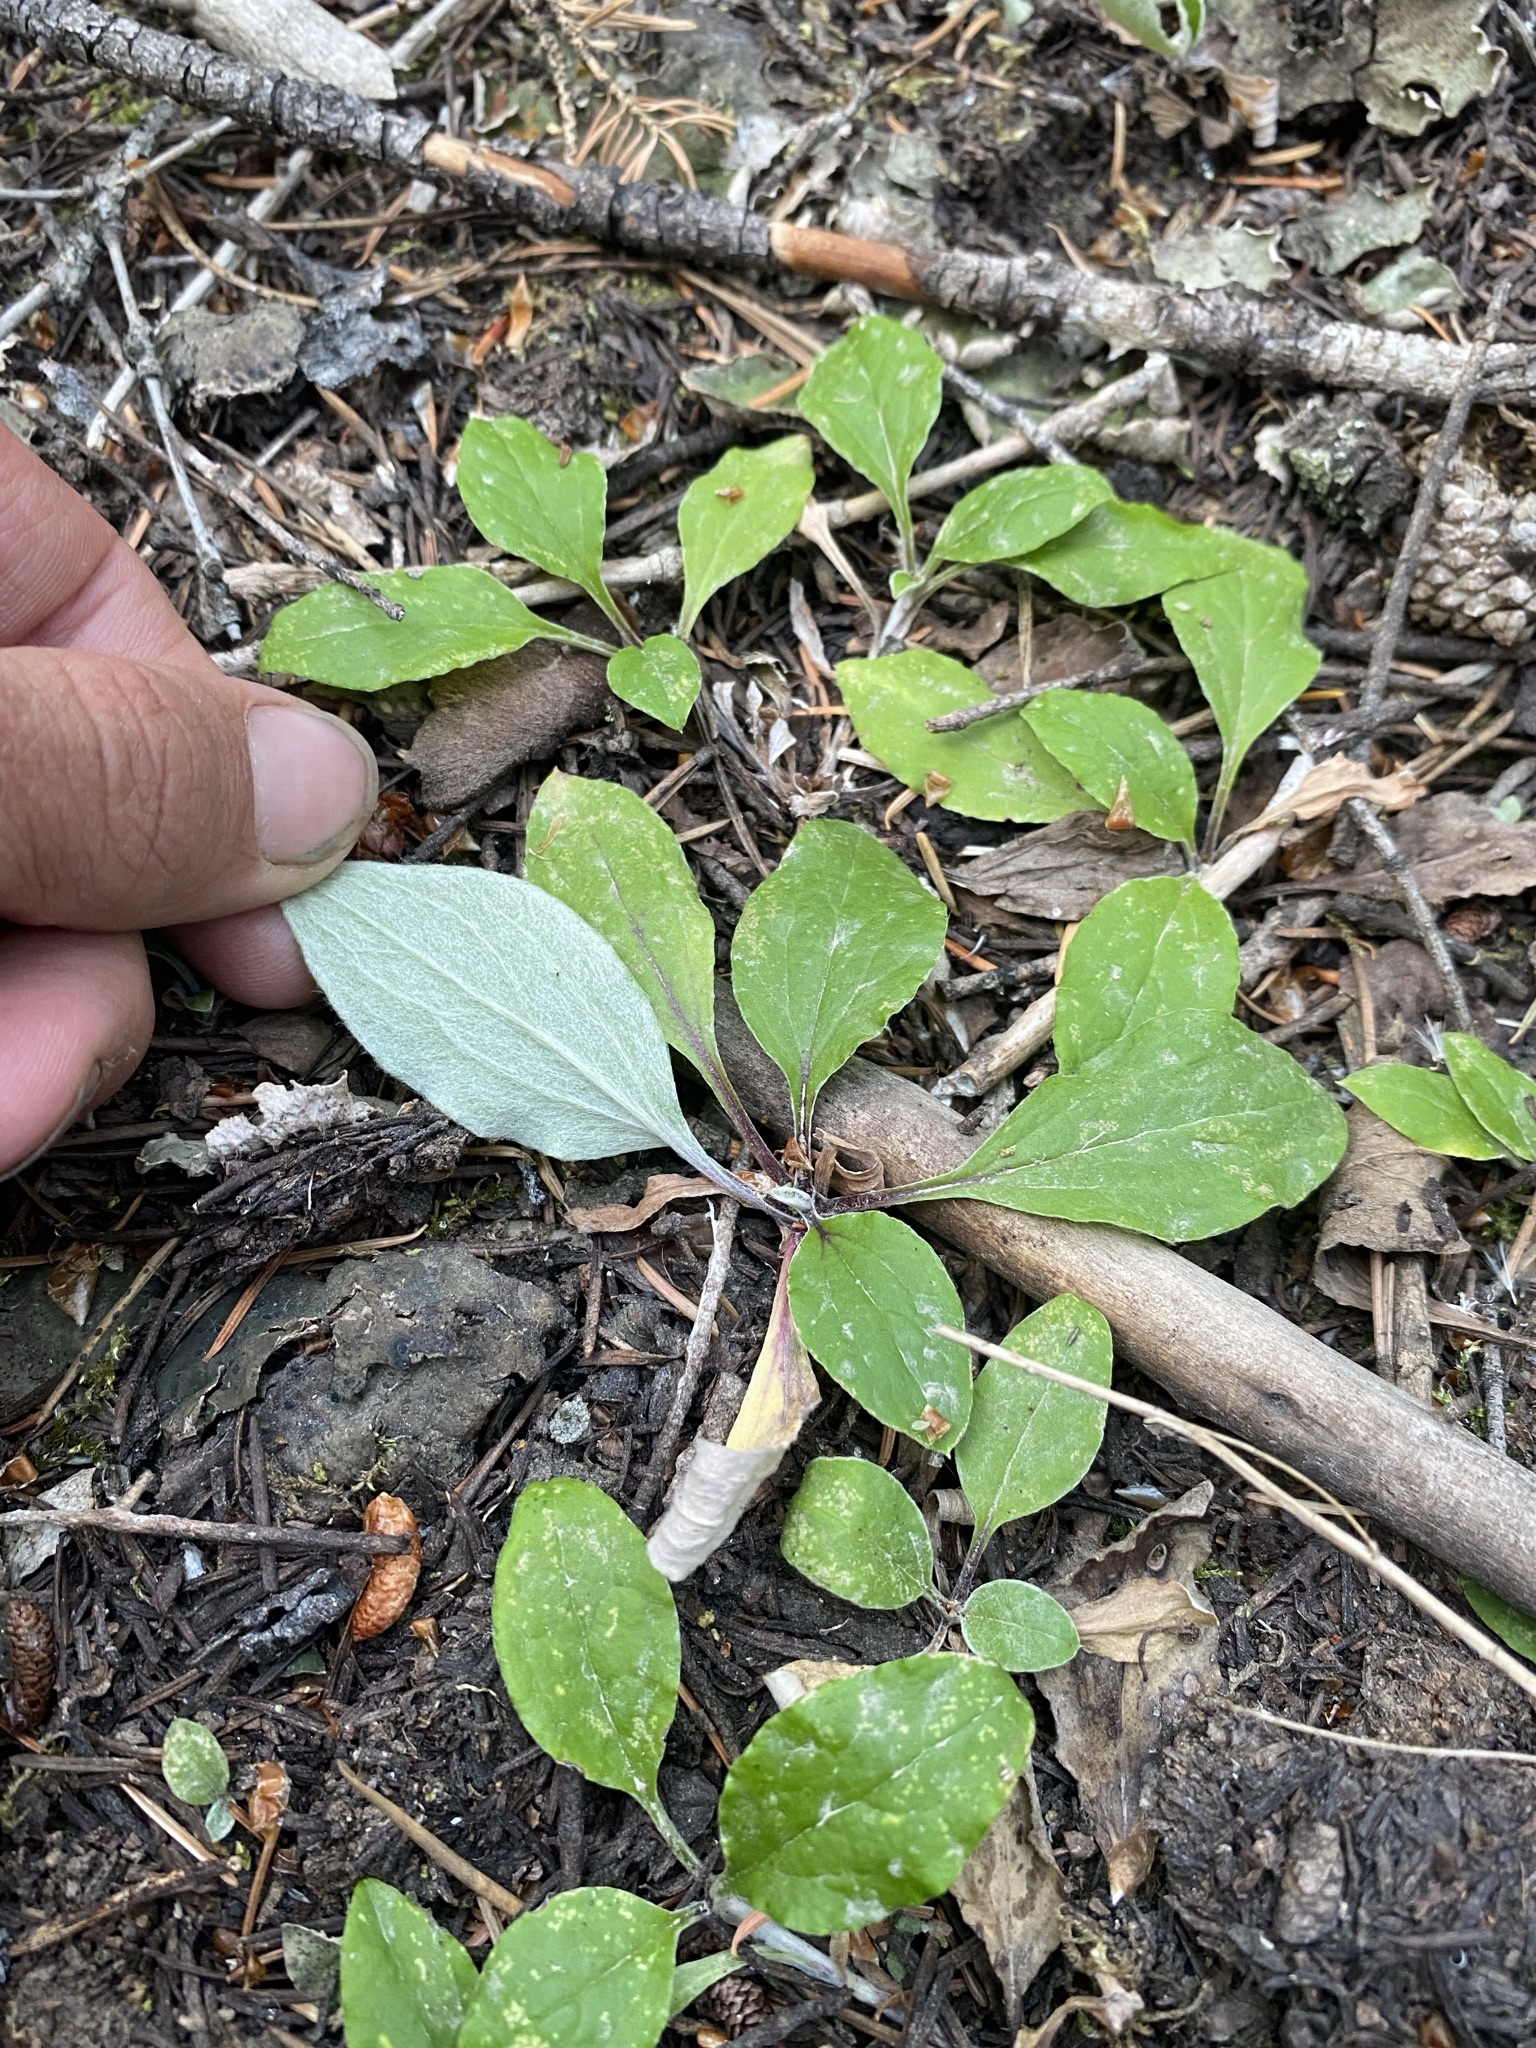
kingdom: Plantae
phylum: Tracheophyta
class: Magnoliopsida
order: Asterales
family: Asteraceae
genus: Antennaria
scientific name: Antennaria racemosa
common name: Racemose pussytoes
